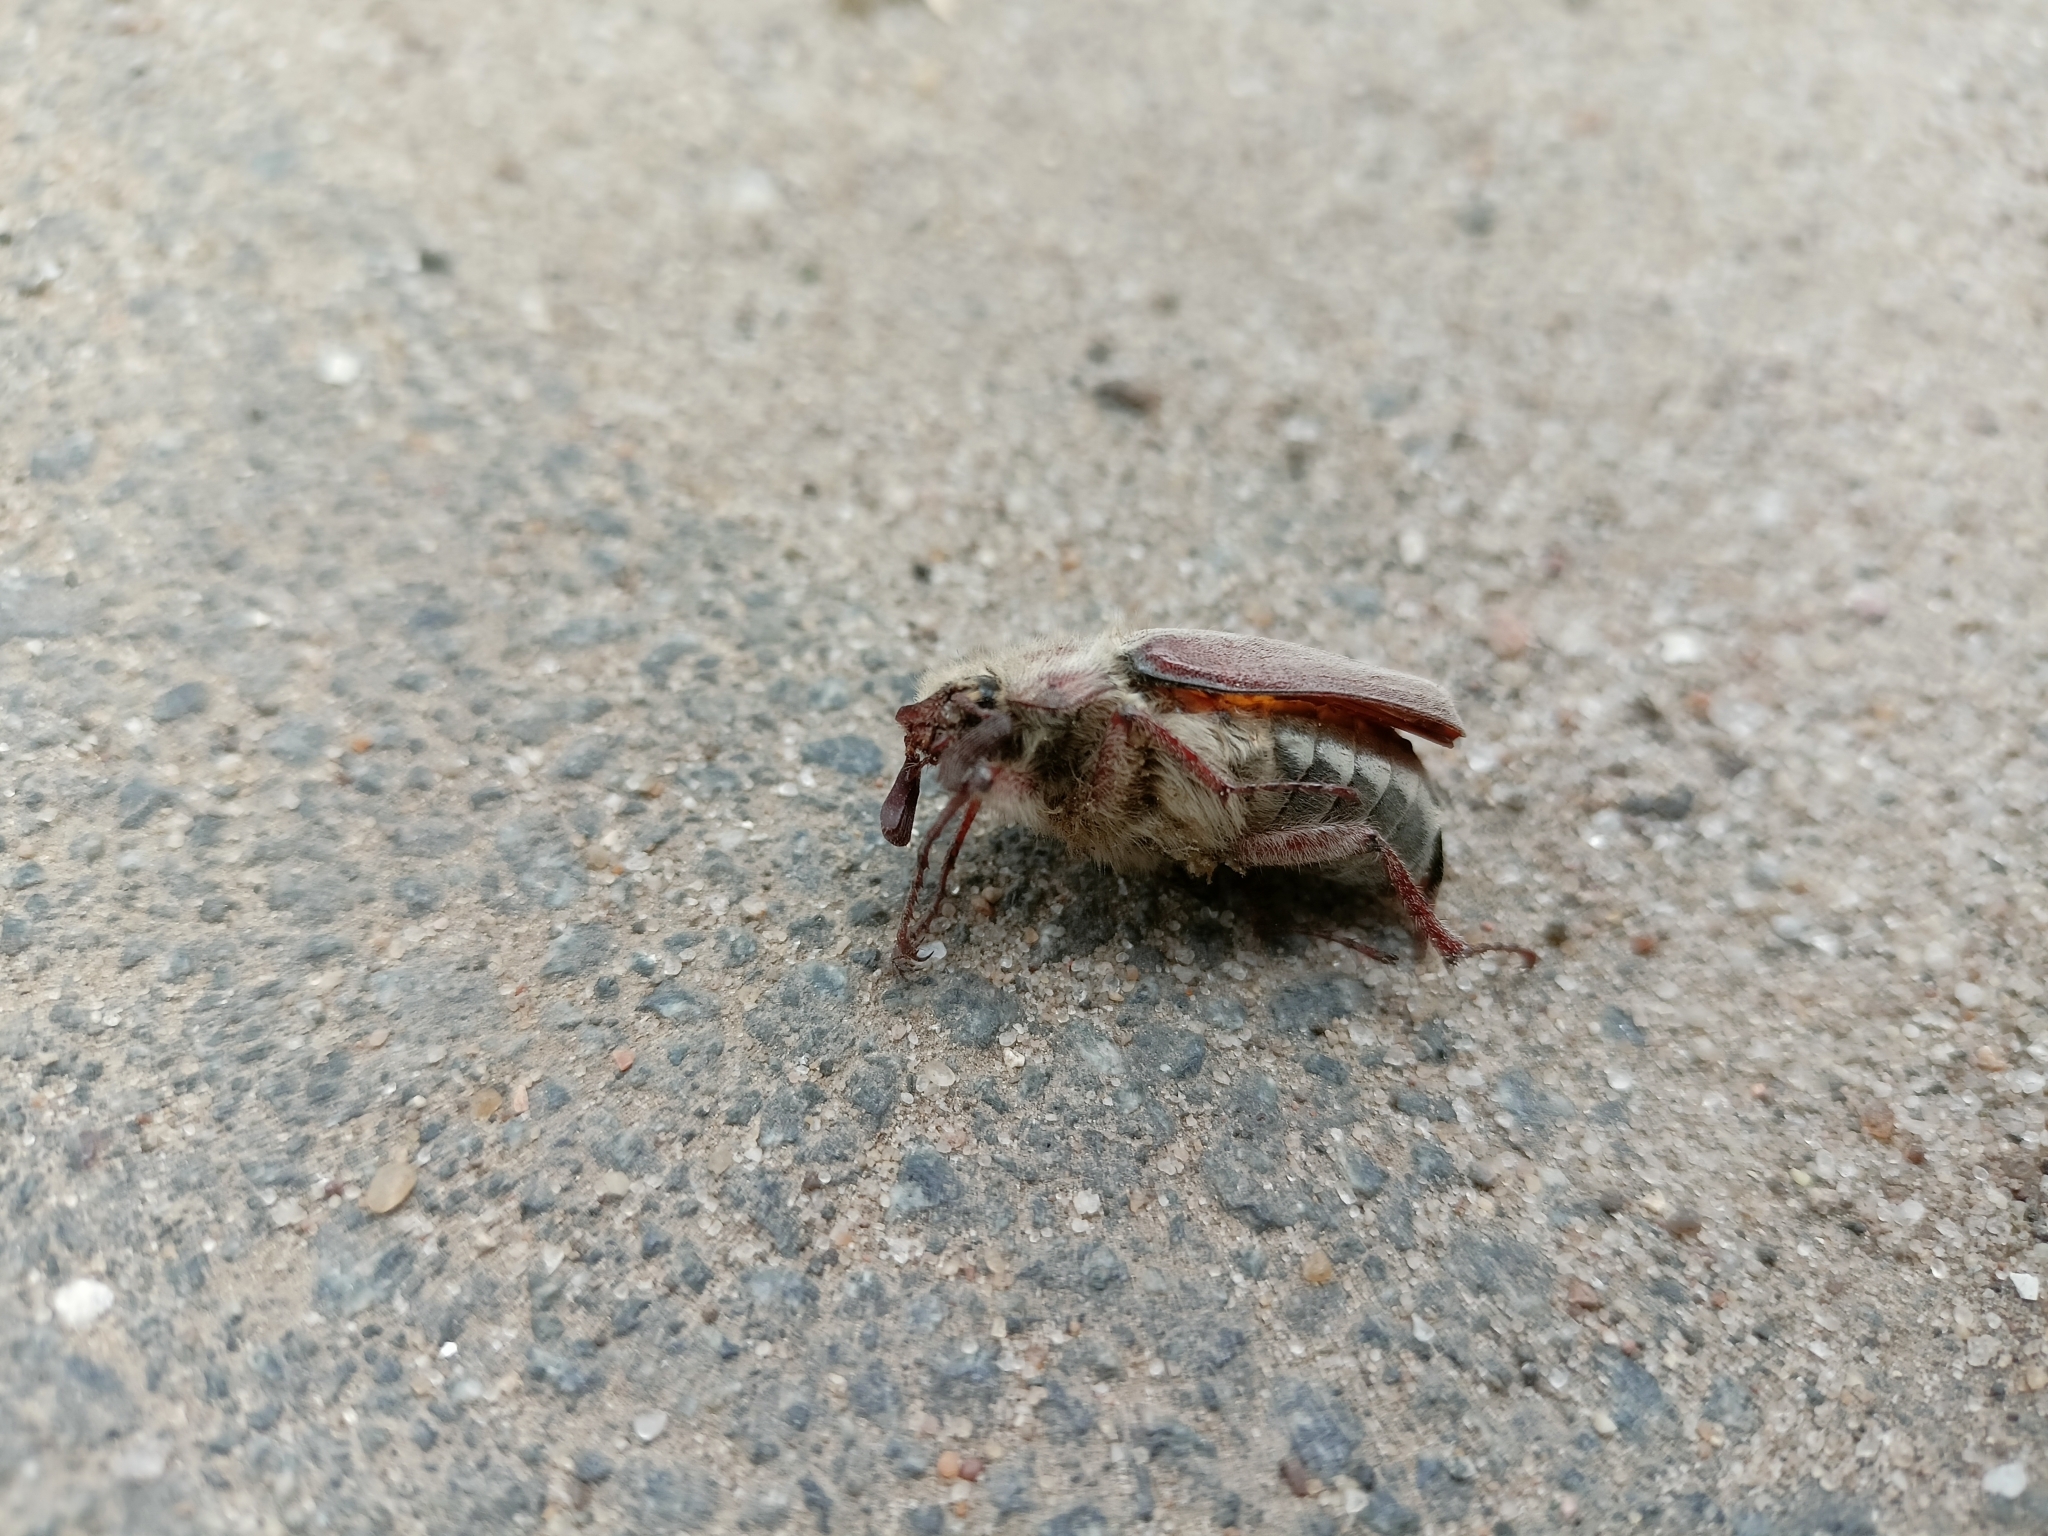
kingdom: Animalia
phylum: Arthropoda
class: Insecta
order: Coleoptera
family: Scarabaeidae
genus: Melolontha
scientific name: Melolontha hippocastani
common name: Chestnut cockchafer
